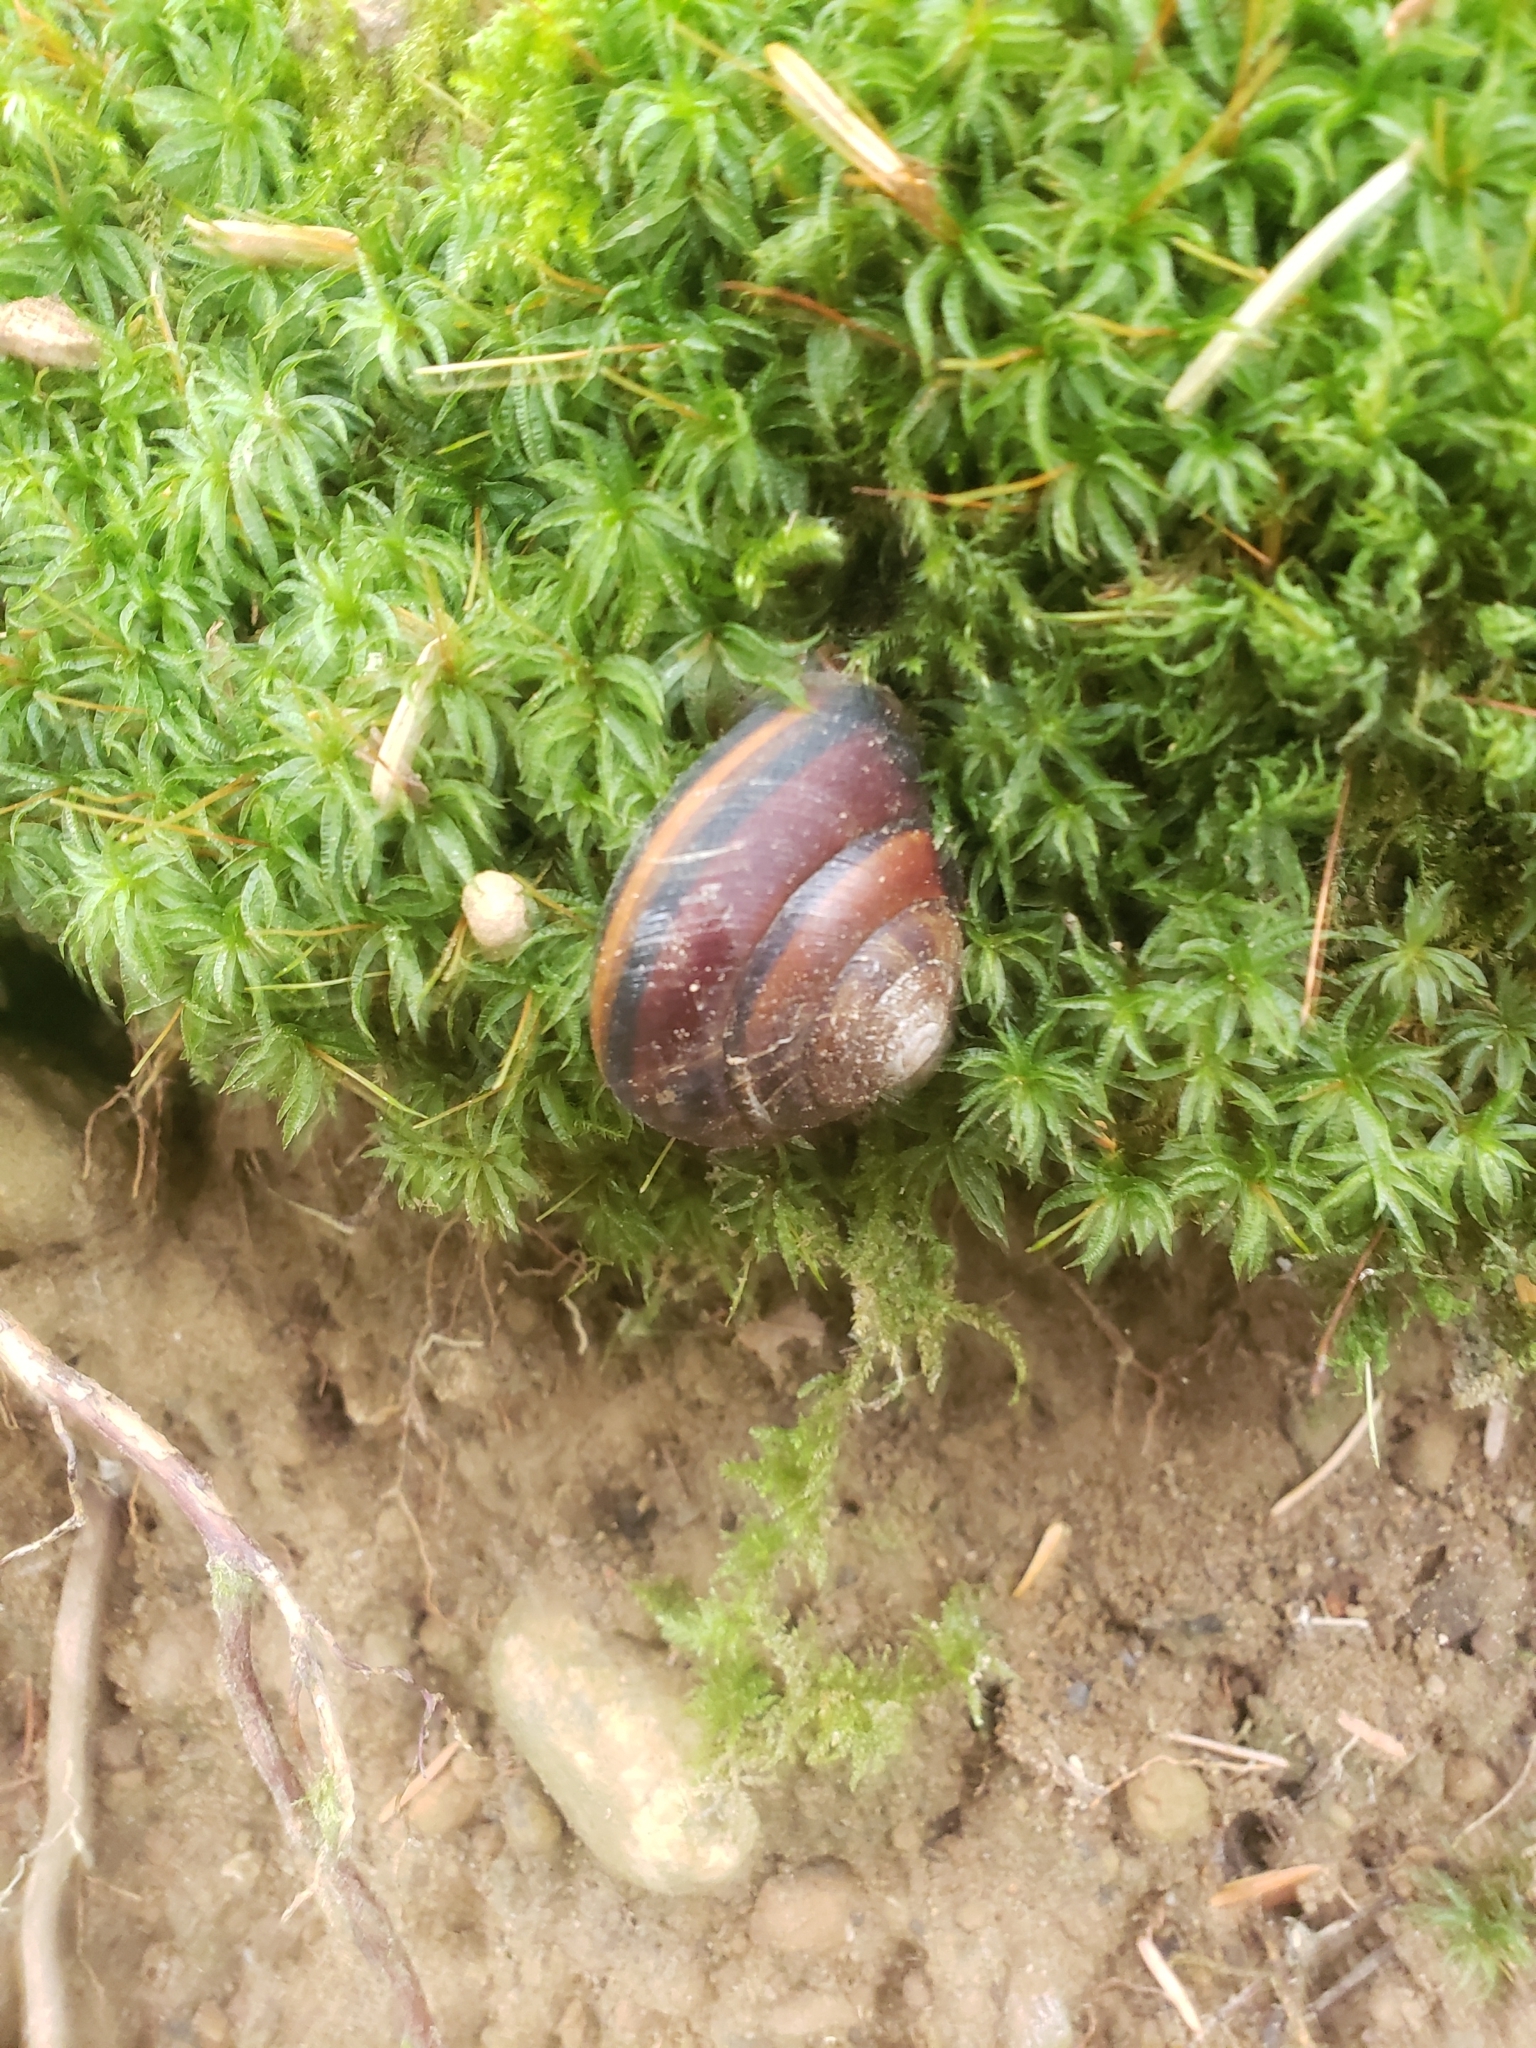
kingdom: Animalia
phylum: Mollusca
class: Gastropoda
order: Stylommatophora
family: Xanthonychidae
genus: Monadenia
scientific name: Monadenia fidelis
